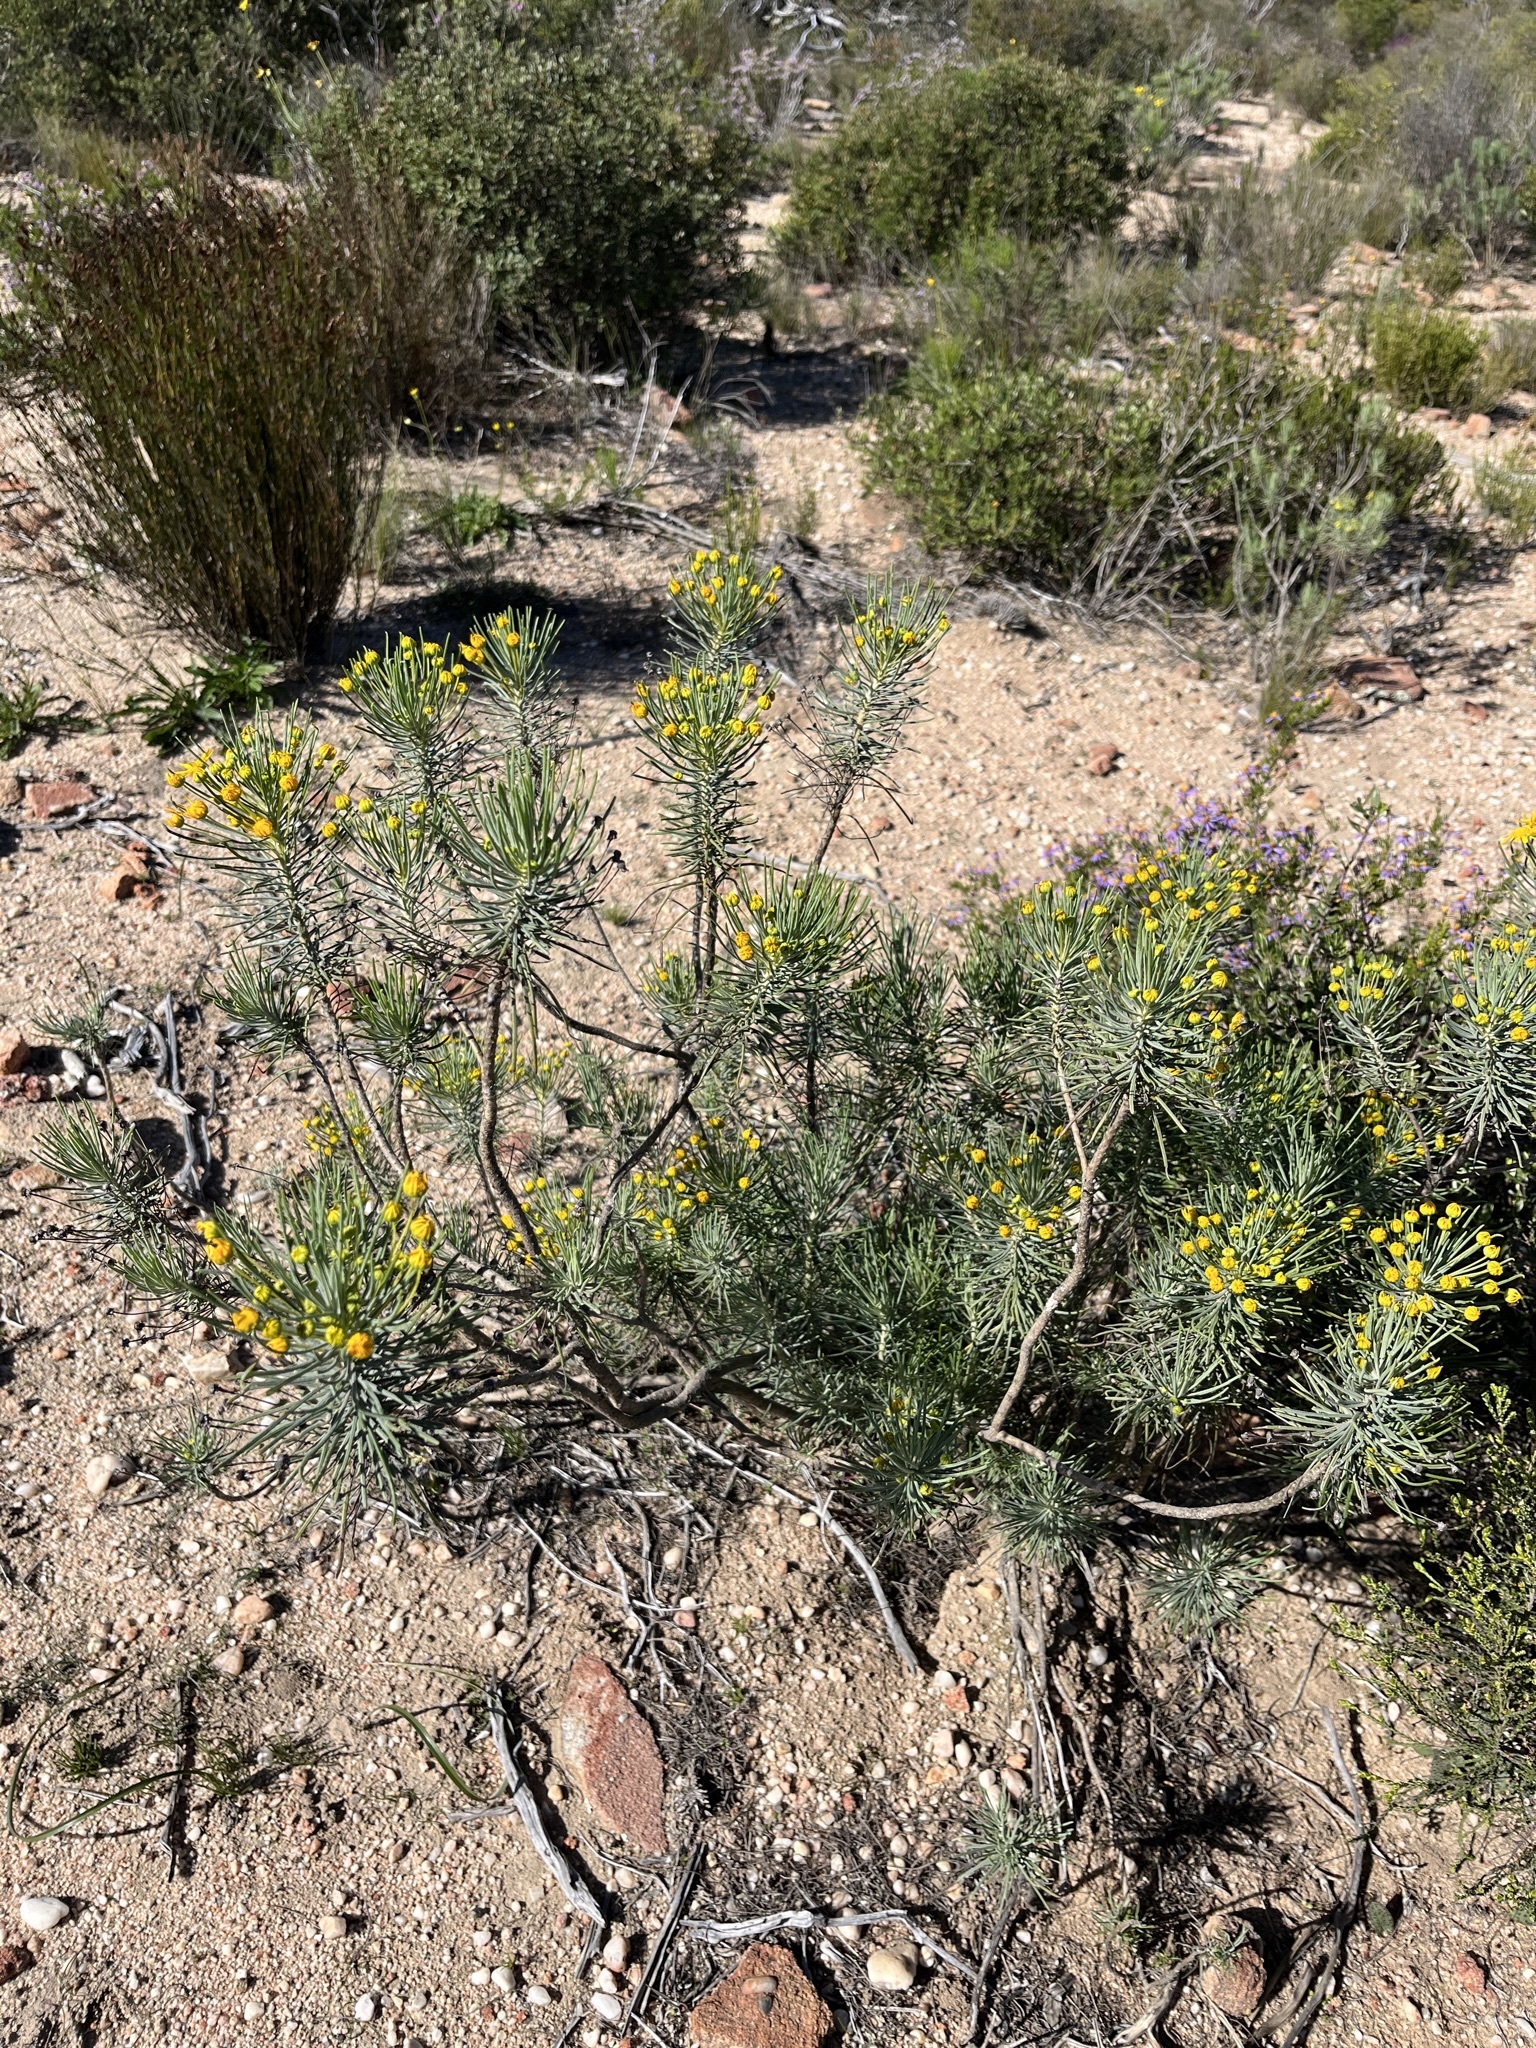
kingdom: Plantae
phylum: Tracheophyta
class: Magnoliopsida
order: Asterales
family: Asteraceae
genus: Euryops
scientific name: Euryops tenuissimus
